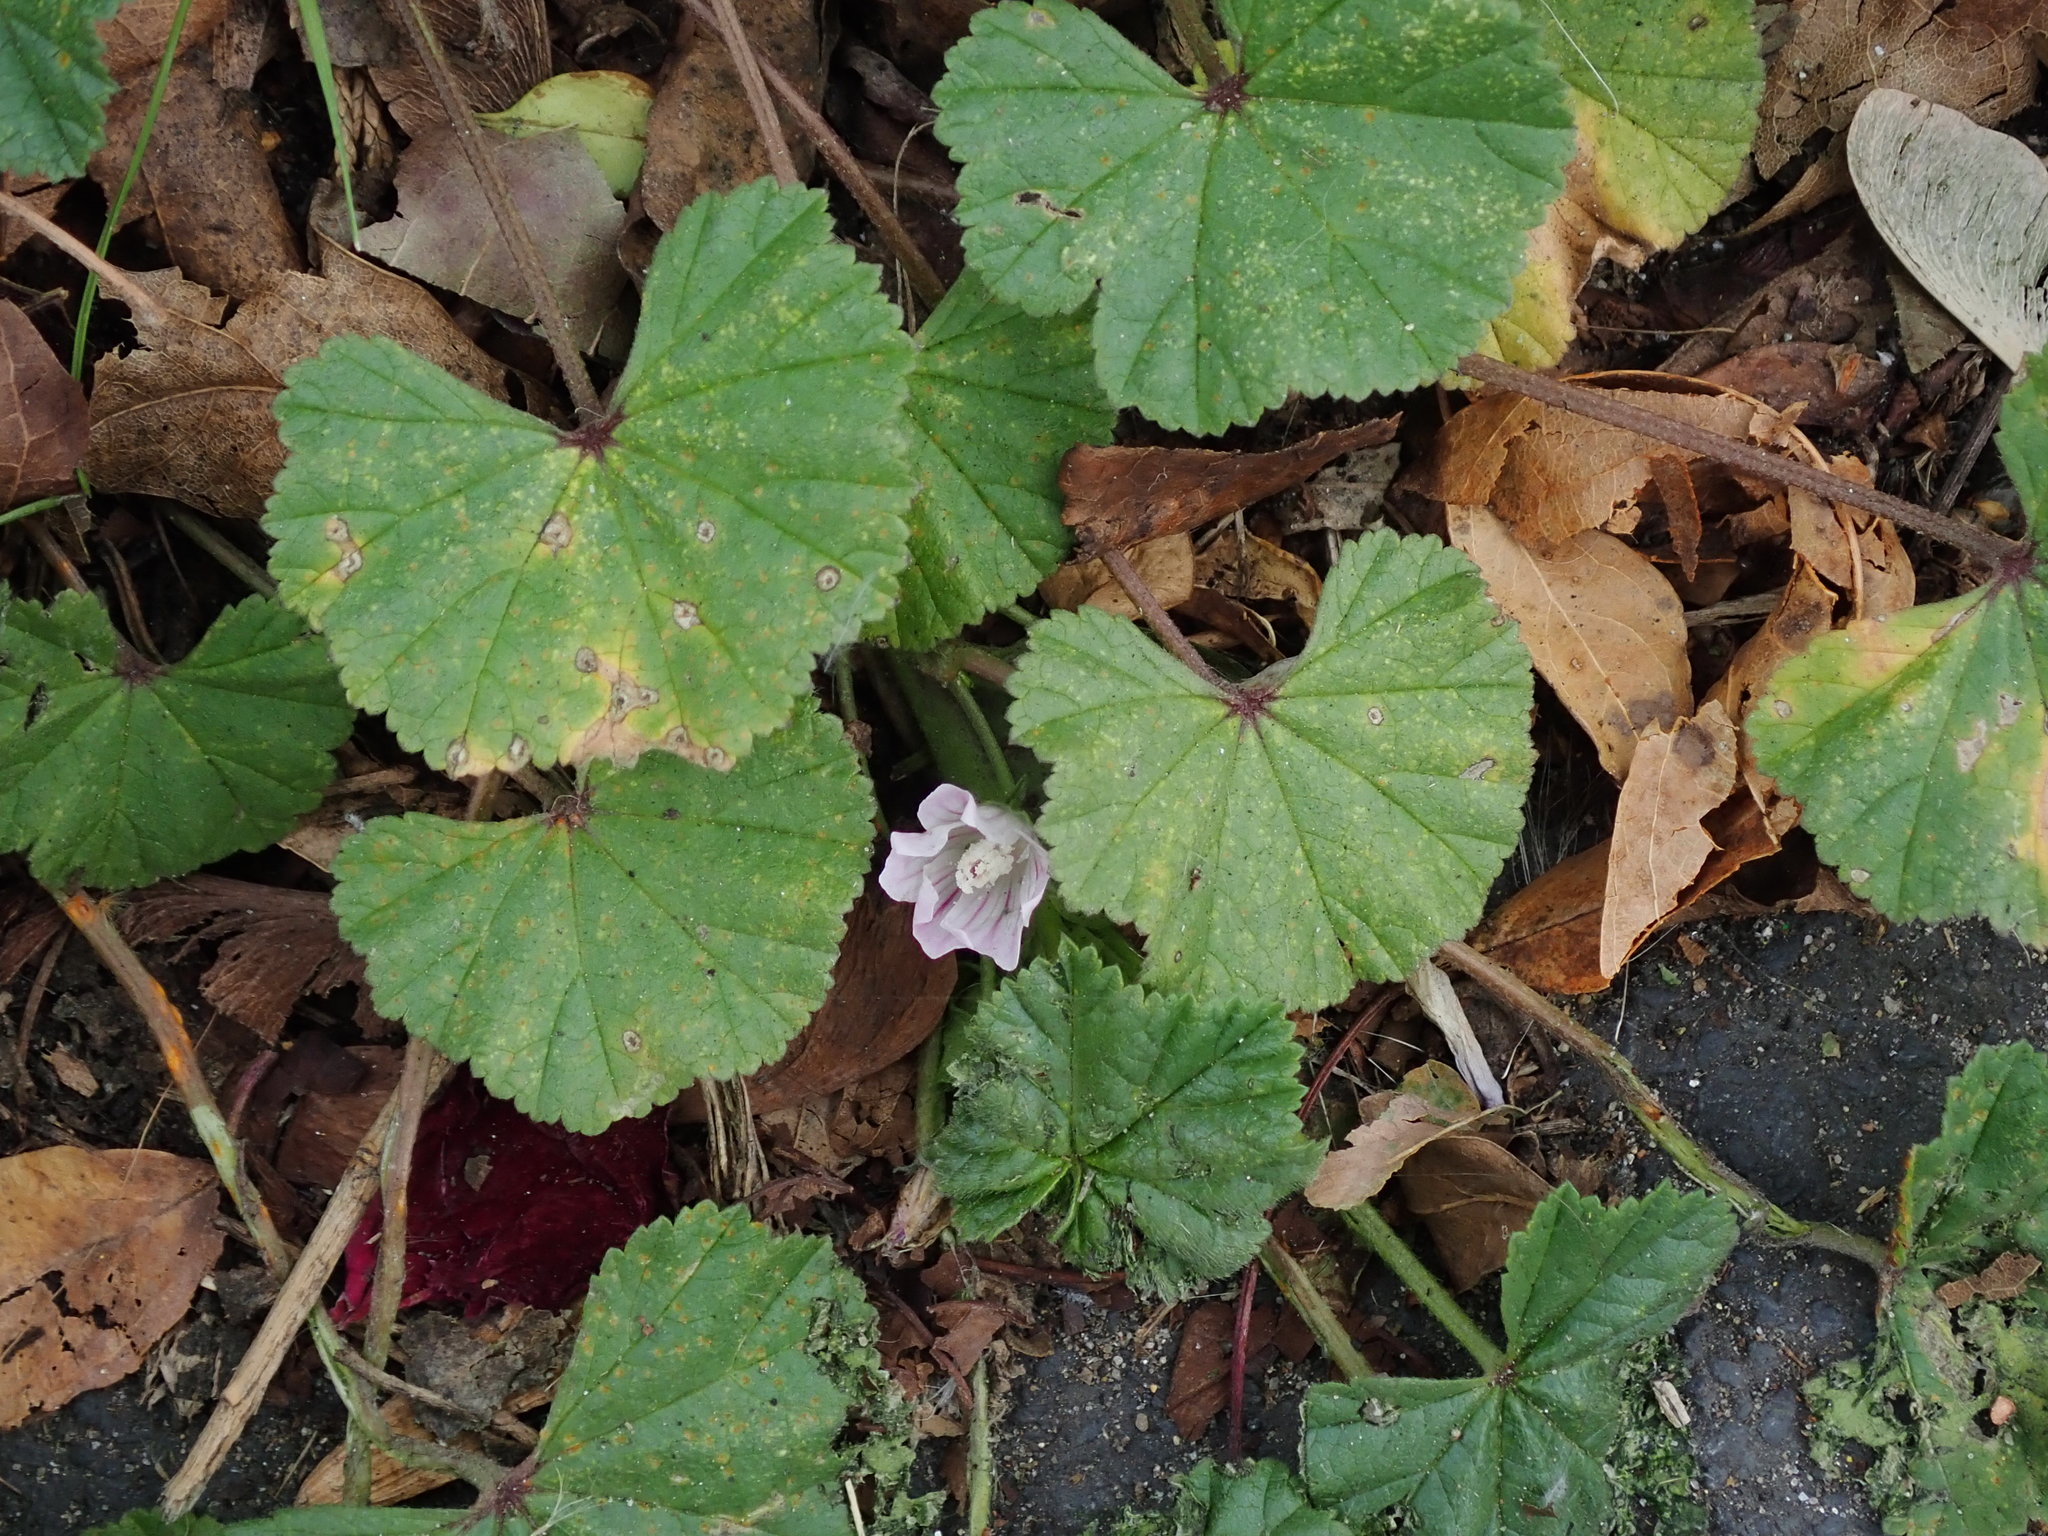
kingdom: Plantae
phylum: Tracheophyta
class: Magnoliopsida
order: Malvales
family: Malvaceae
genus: Malva
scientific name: Malva neglecta
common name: Common mallow
